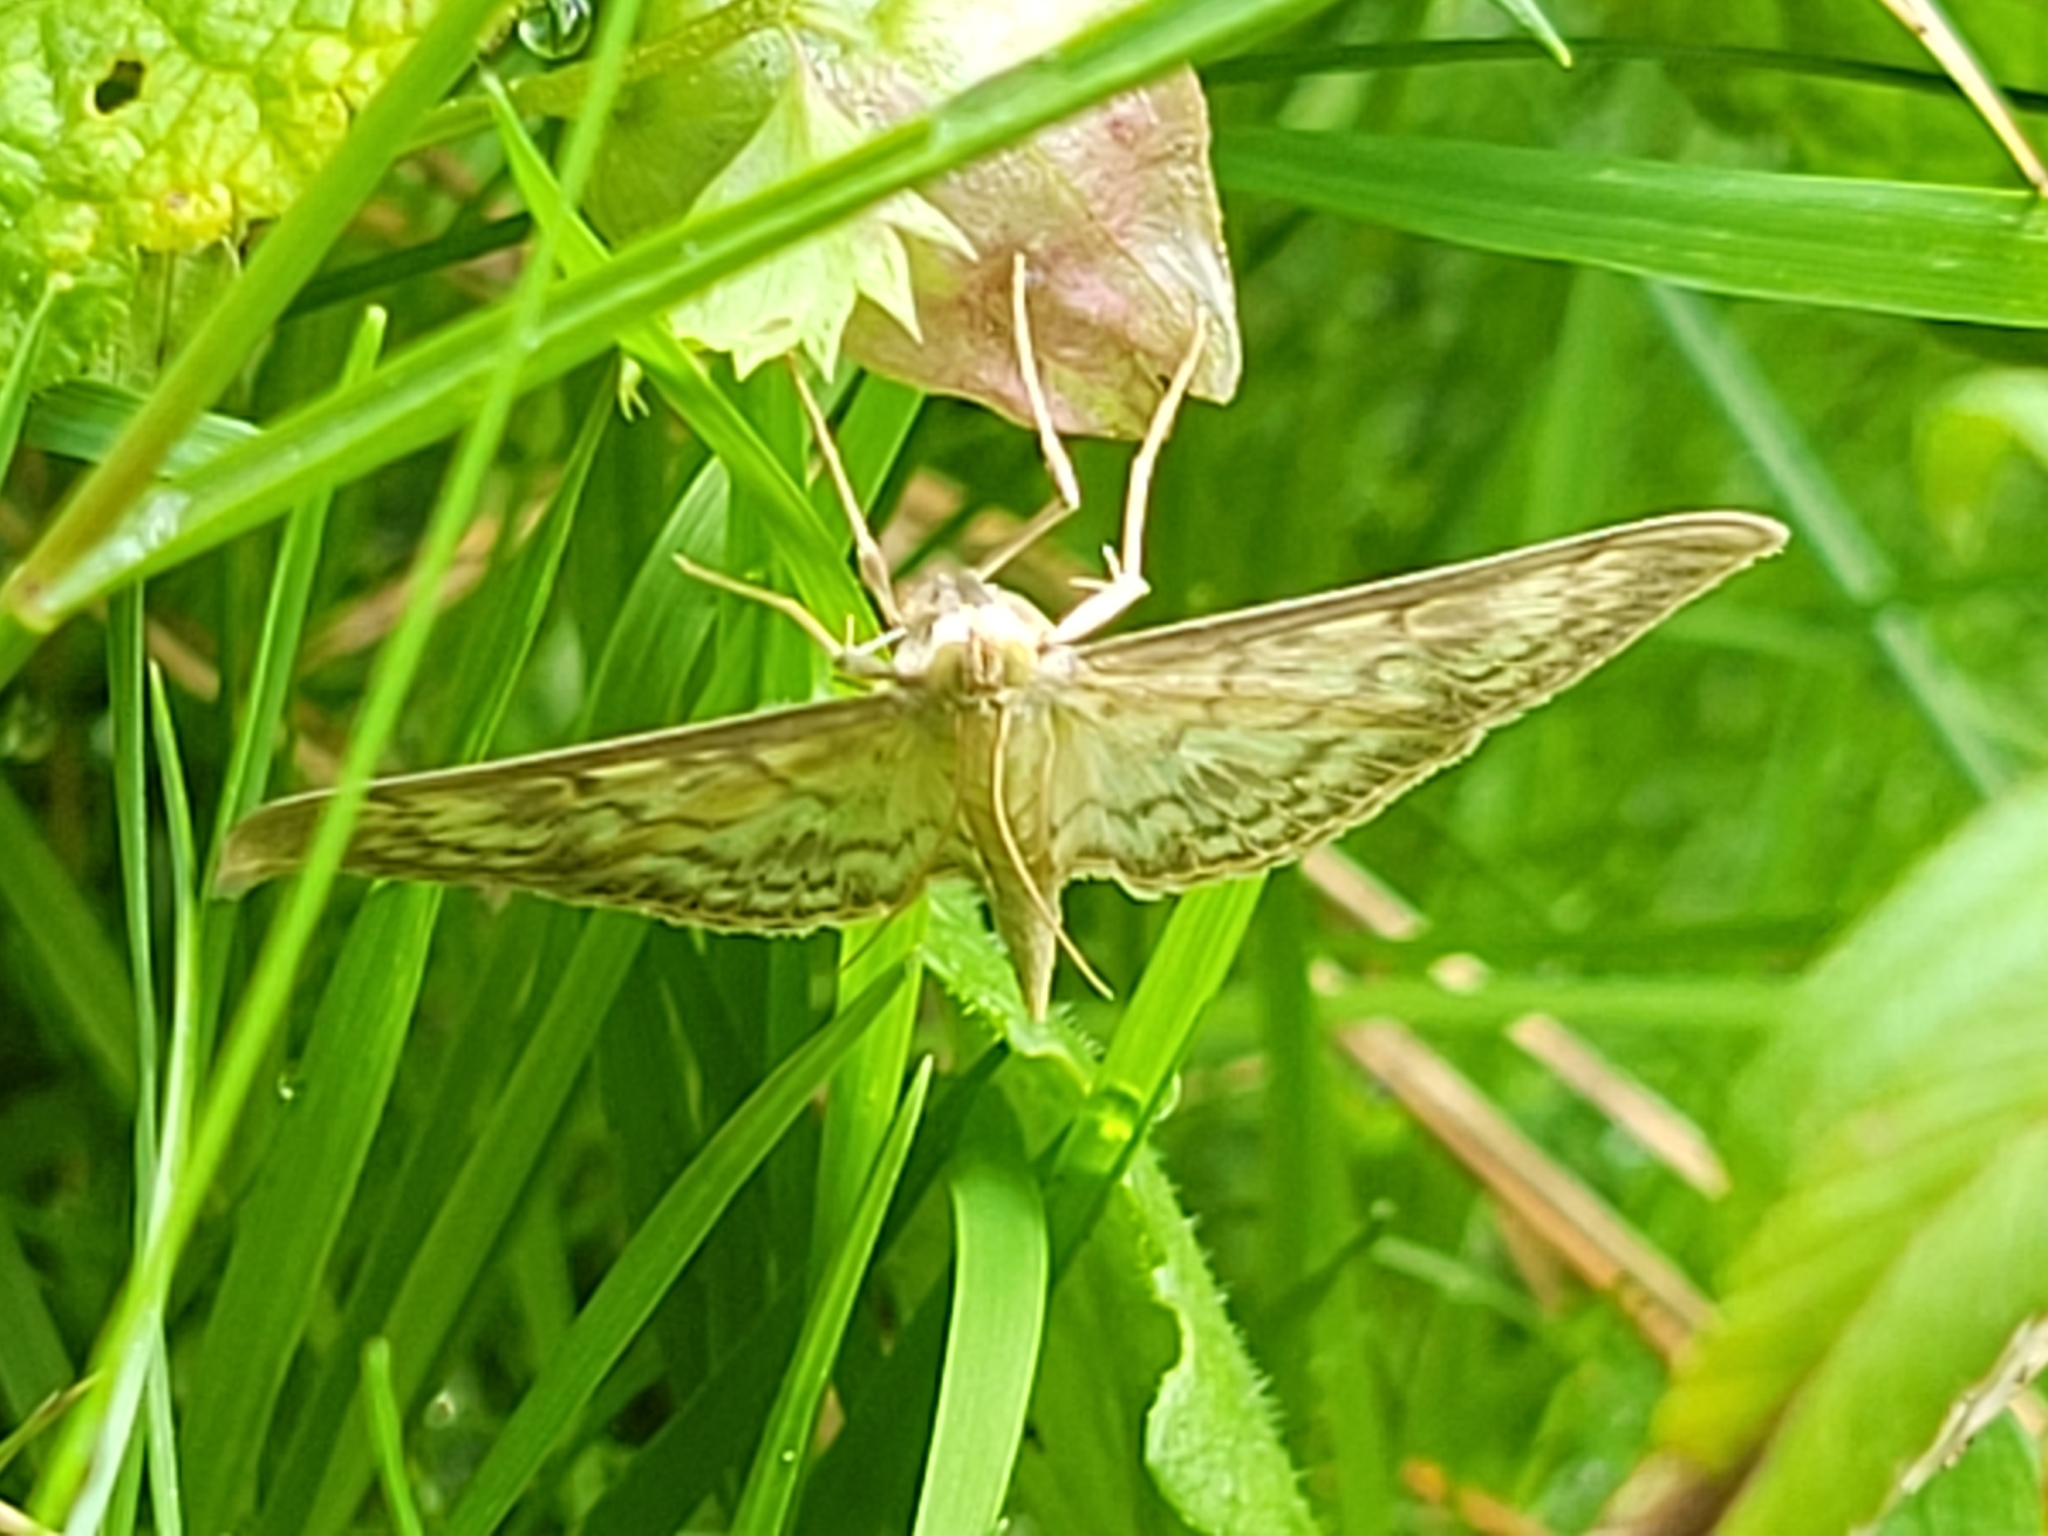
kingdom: Animalia
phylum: Arthropoda
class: Insecta
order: Lepidoptera
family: Crambidae
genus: Patania
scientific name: Patania ruralis
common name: Mother of pearl
